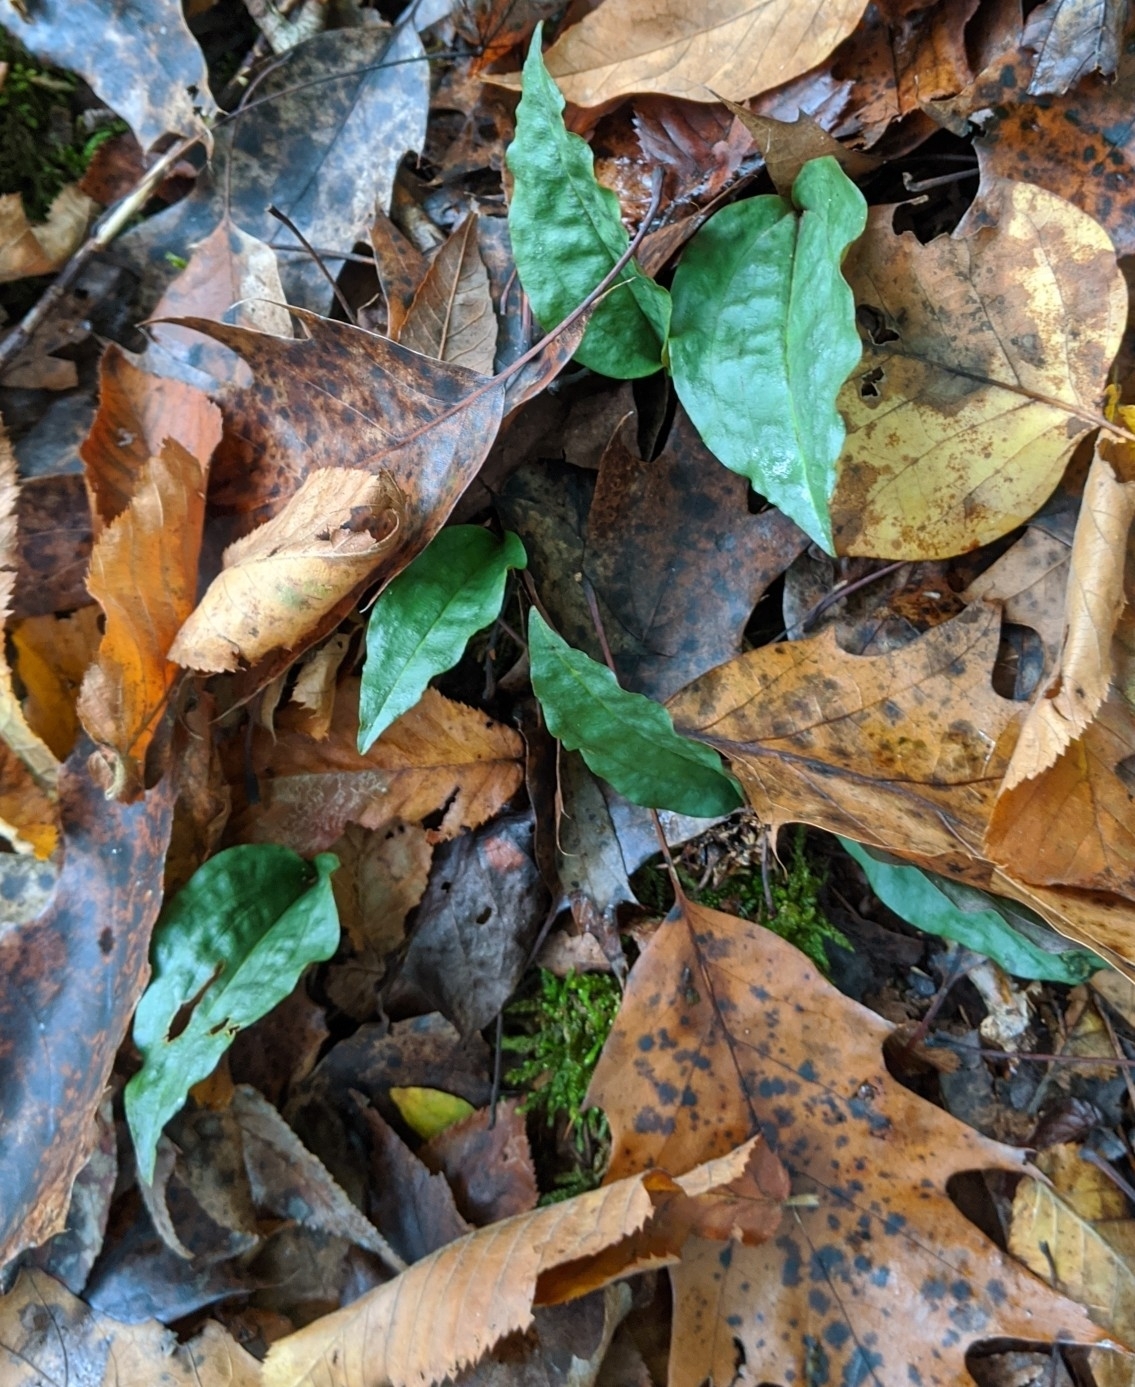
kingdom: Plantae
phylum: Tracheophyta
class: Liliopsida
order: Asparagales
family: Orchidaceae
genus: Tipularia
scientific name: Tipularia discolor
